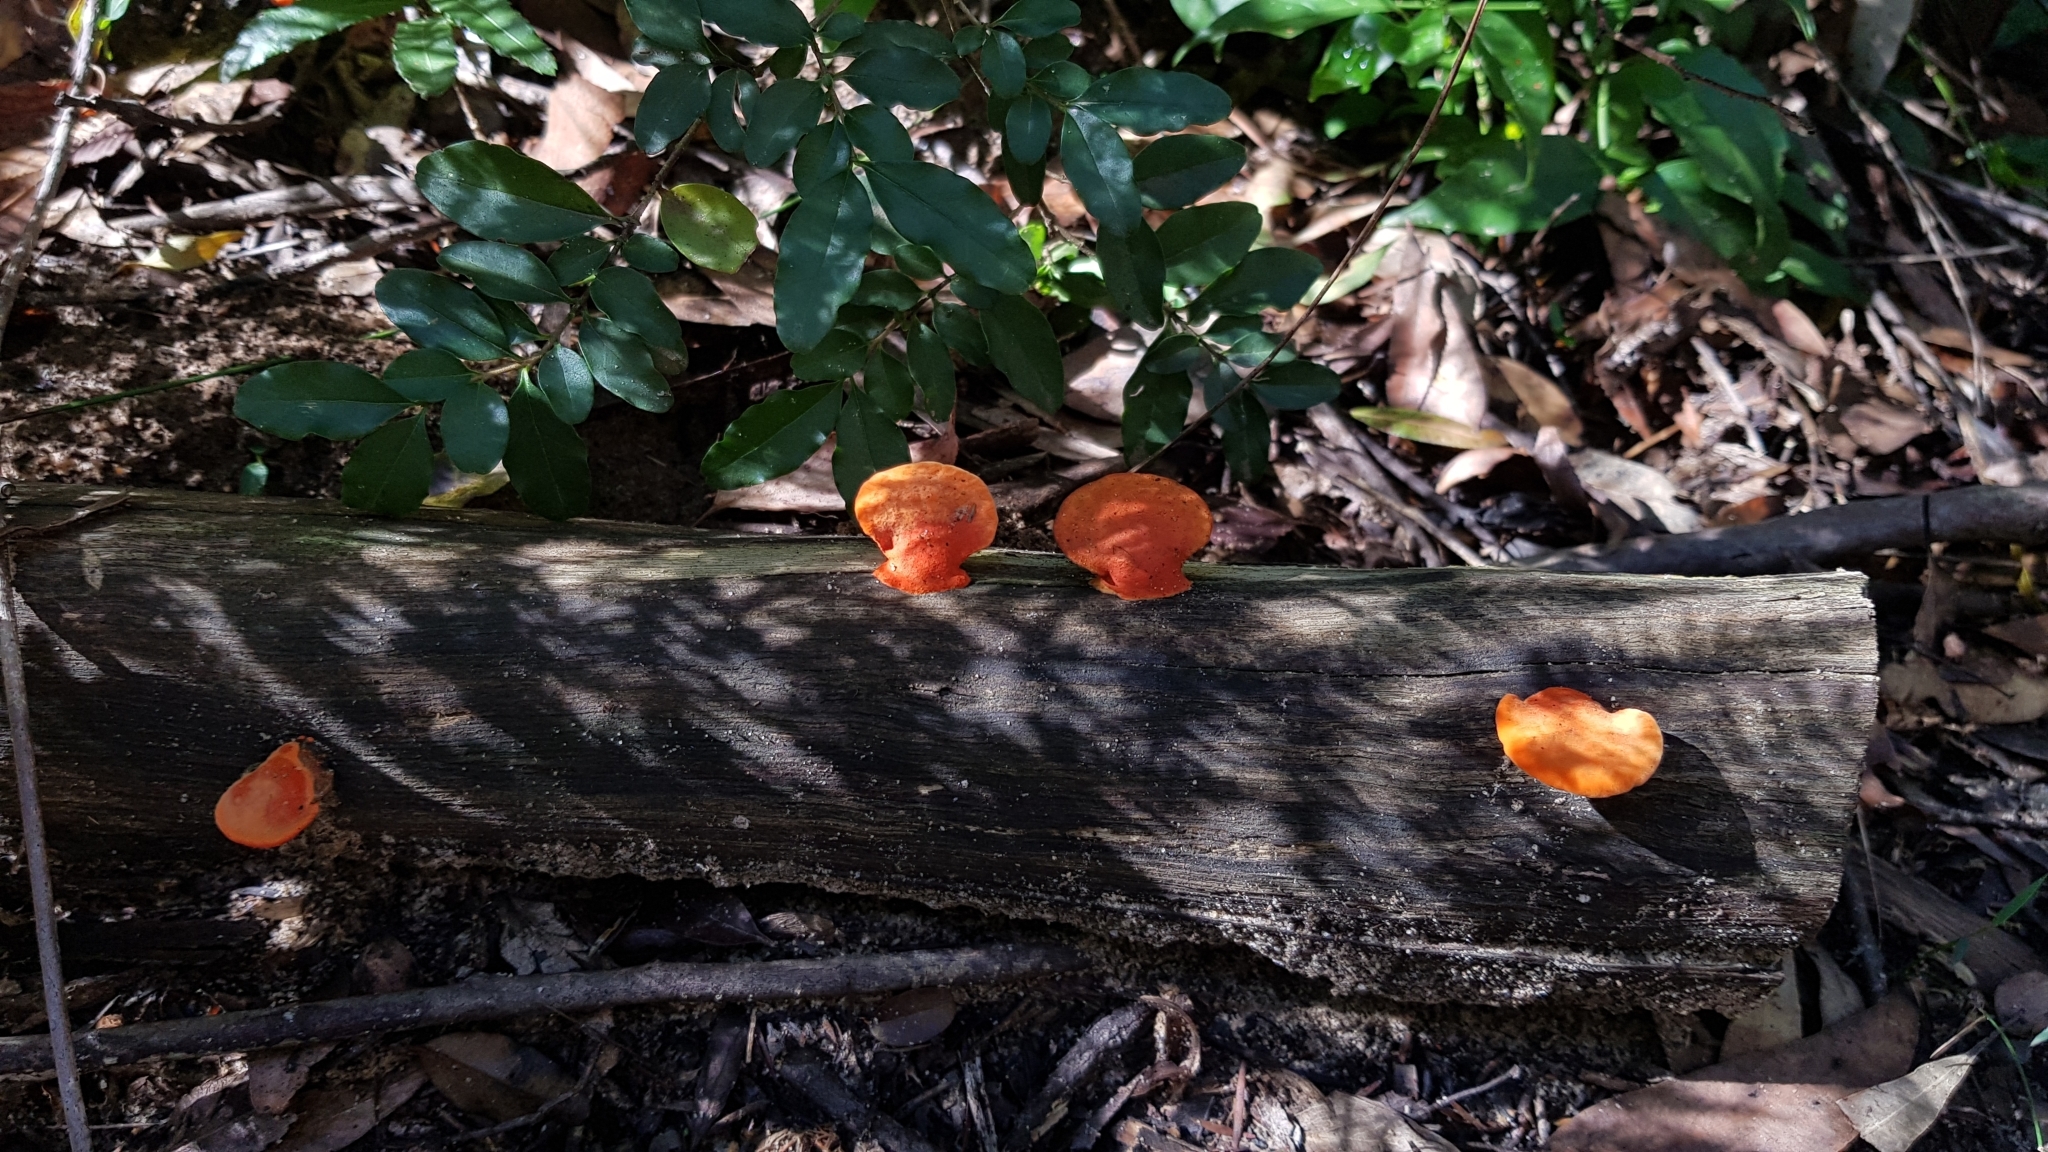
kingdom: Fungi
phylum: Basidiomycota
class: Agaricomycetes
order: Polyporales
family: Polyporaceae
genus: Trametes
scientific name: Trametes coccinea
